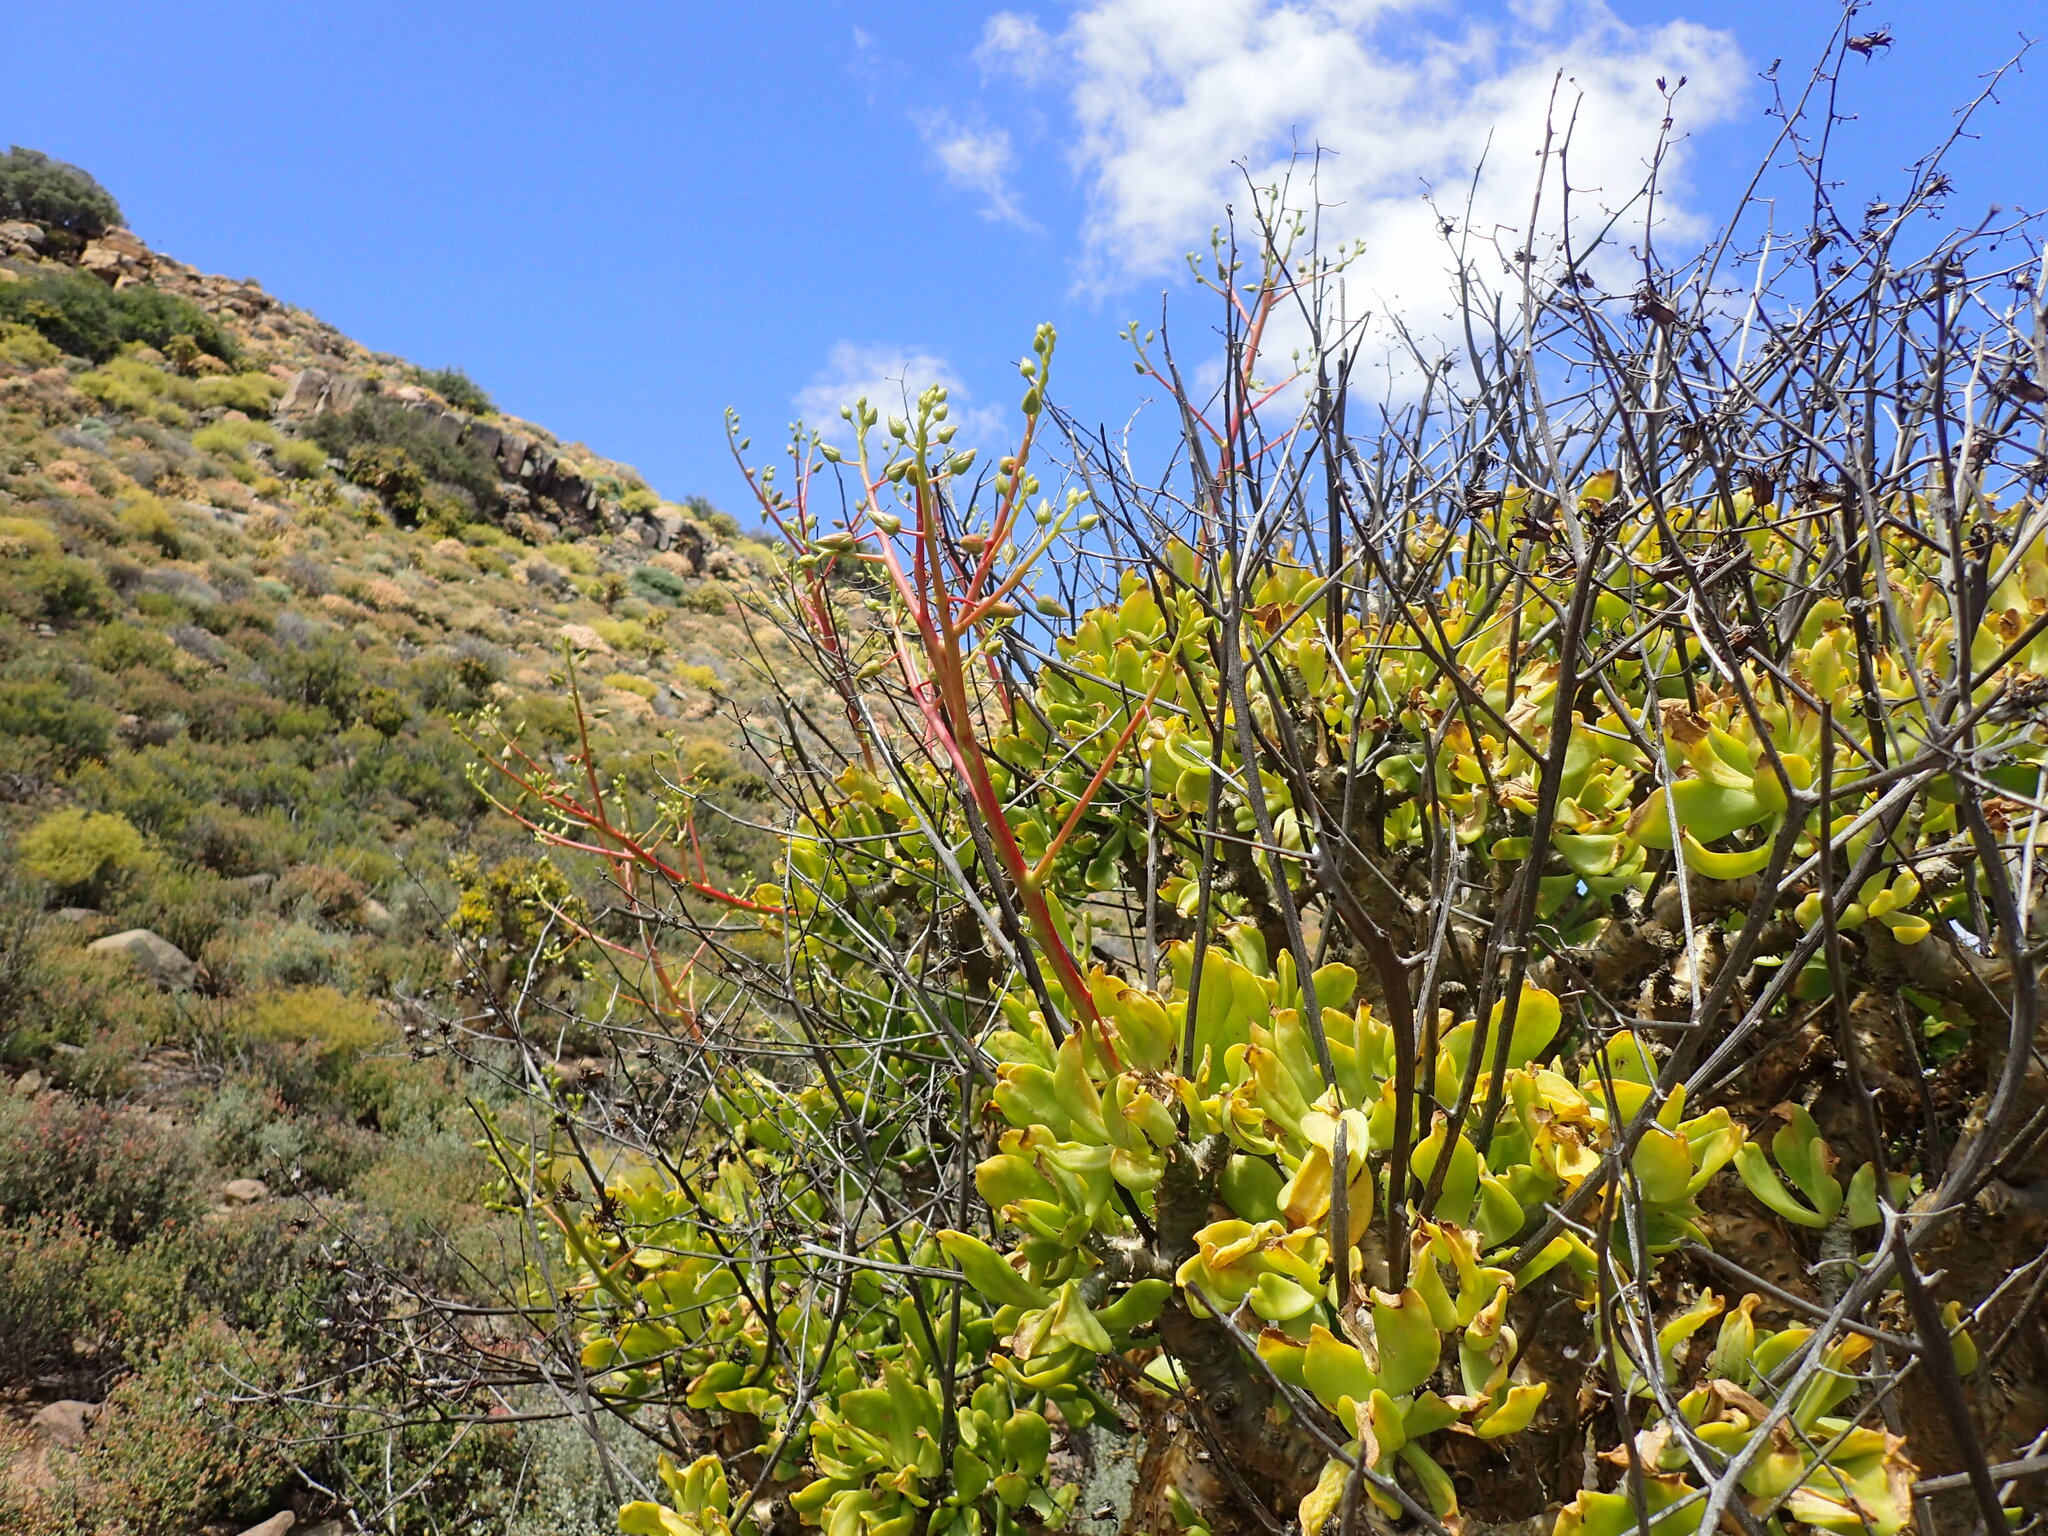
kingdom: Plantae
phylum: Tracheophyta
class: Magnoliopsida
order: Saxifragales
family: Crassulaceae
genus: Tylecodon
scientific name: Tylecodon paniculatus
